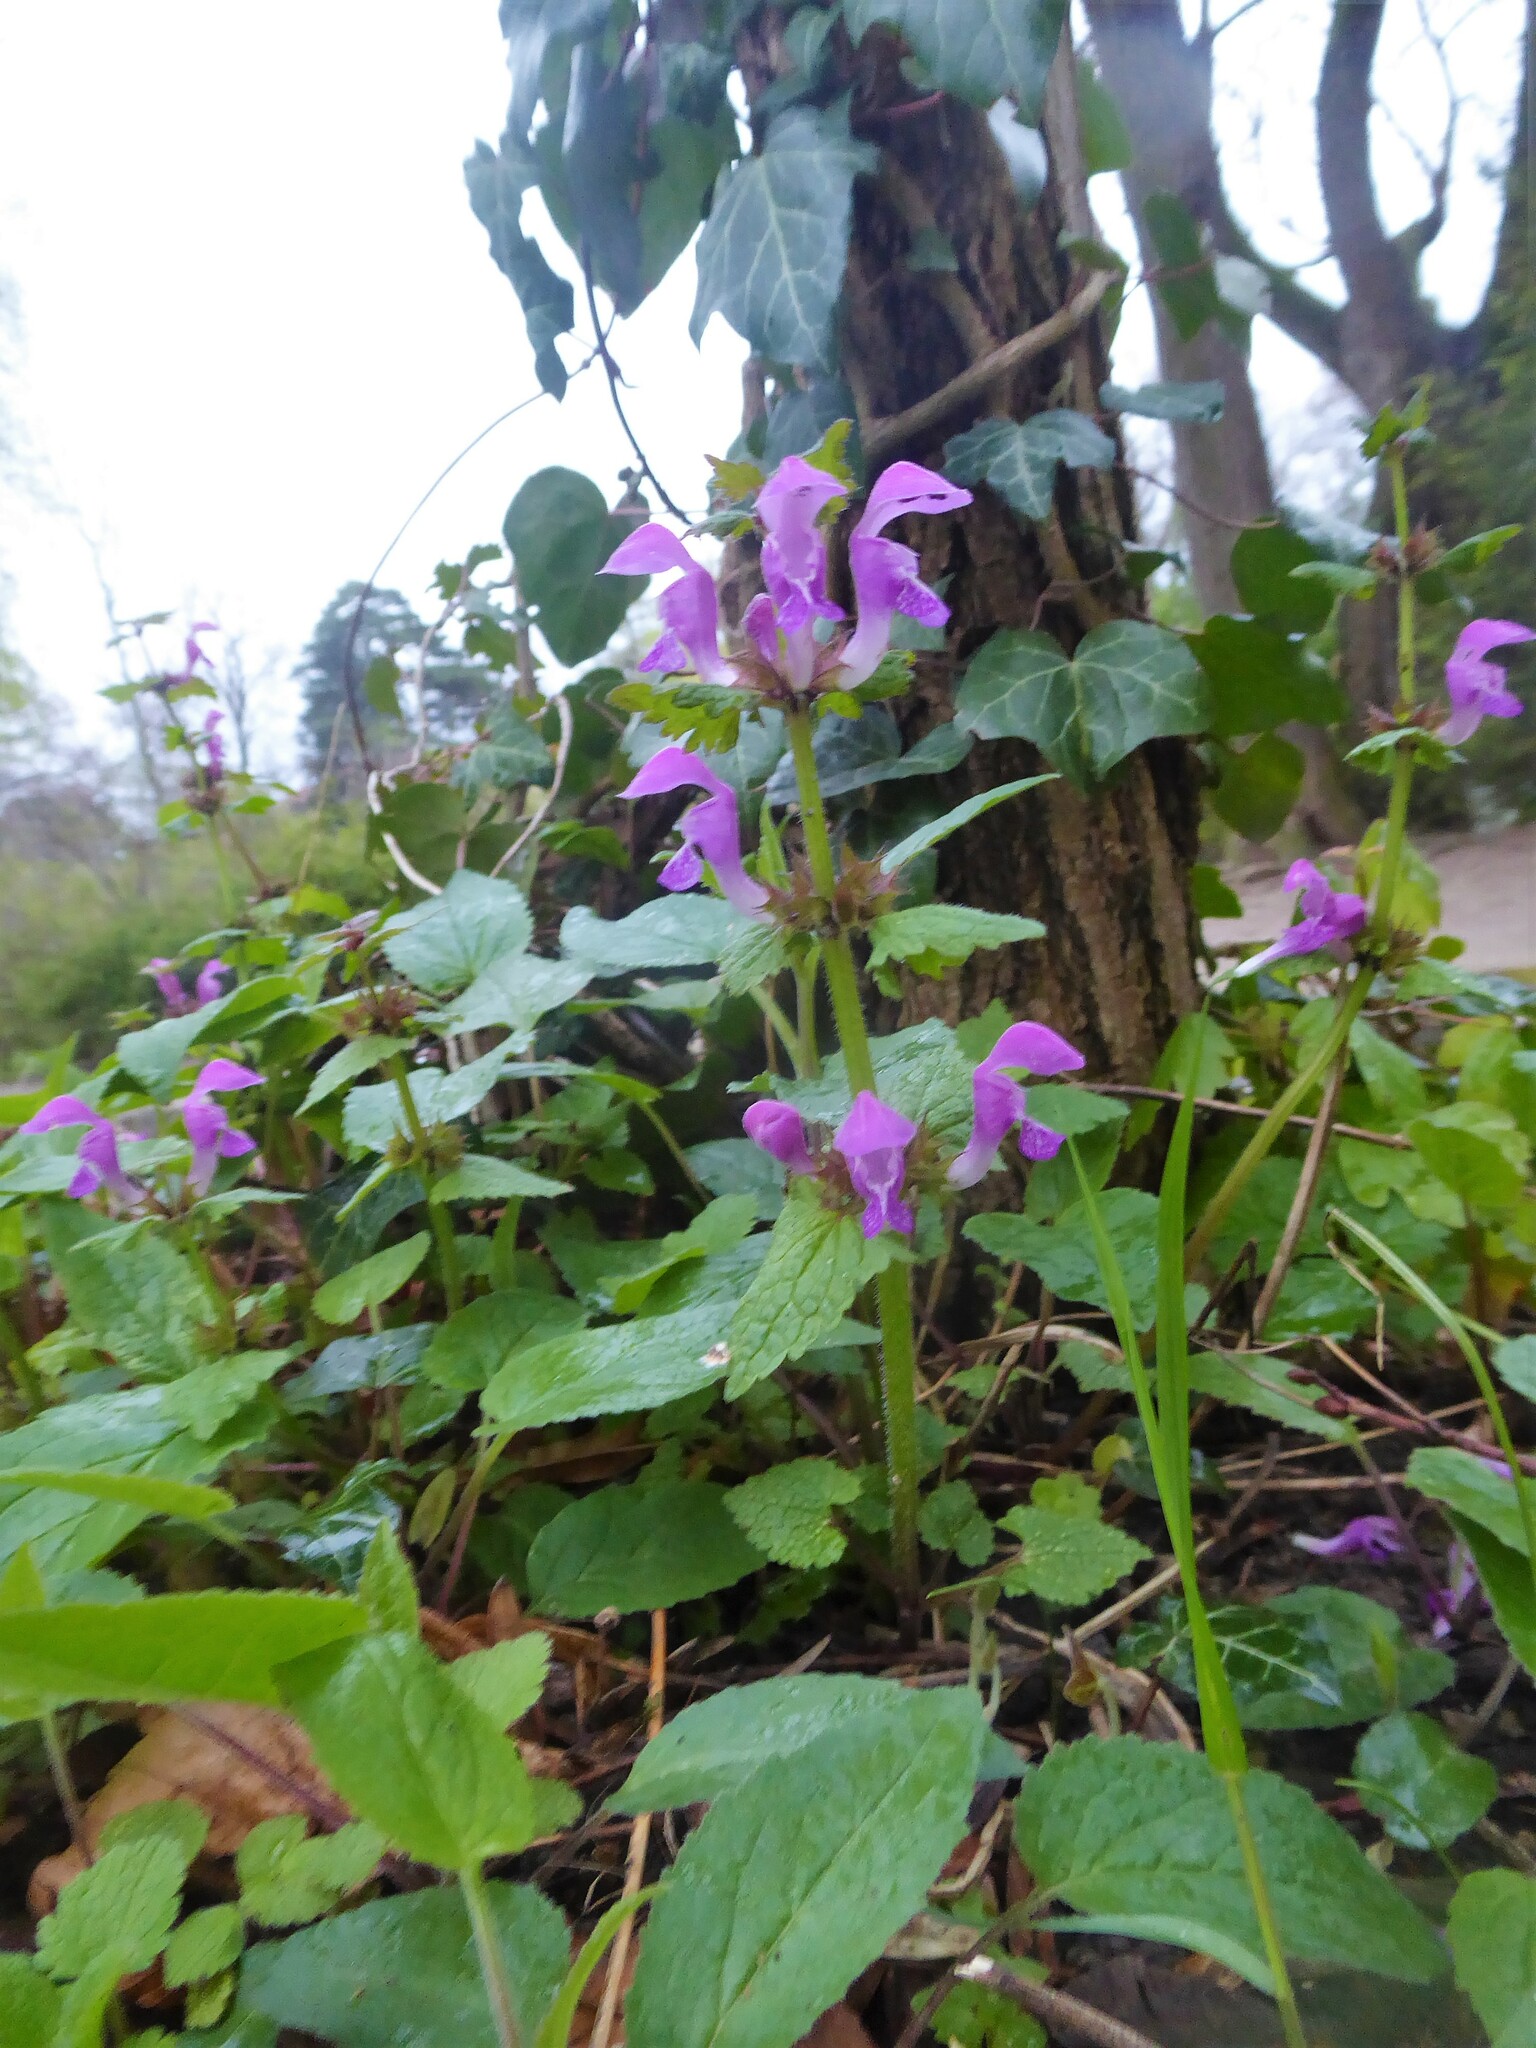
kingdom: Plantae
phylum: Tracheophyta
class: Magnoliopsida
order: Lamiales
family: Lamiaceae
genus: Lamium
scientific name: Lamium maculatum
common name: Spotted dead-nettle
